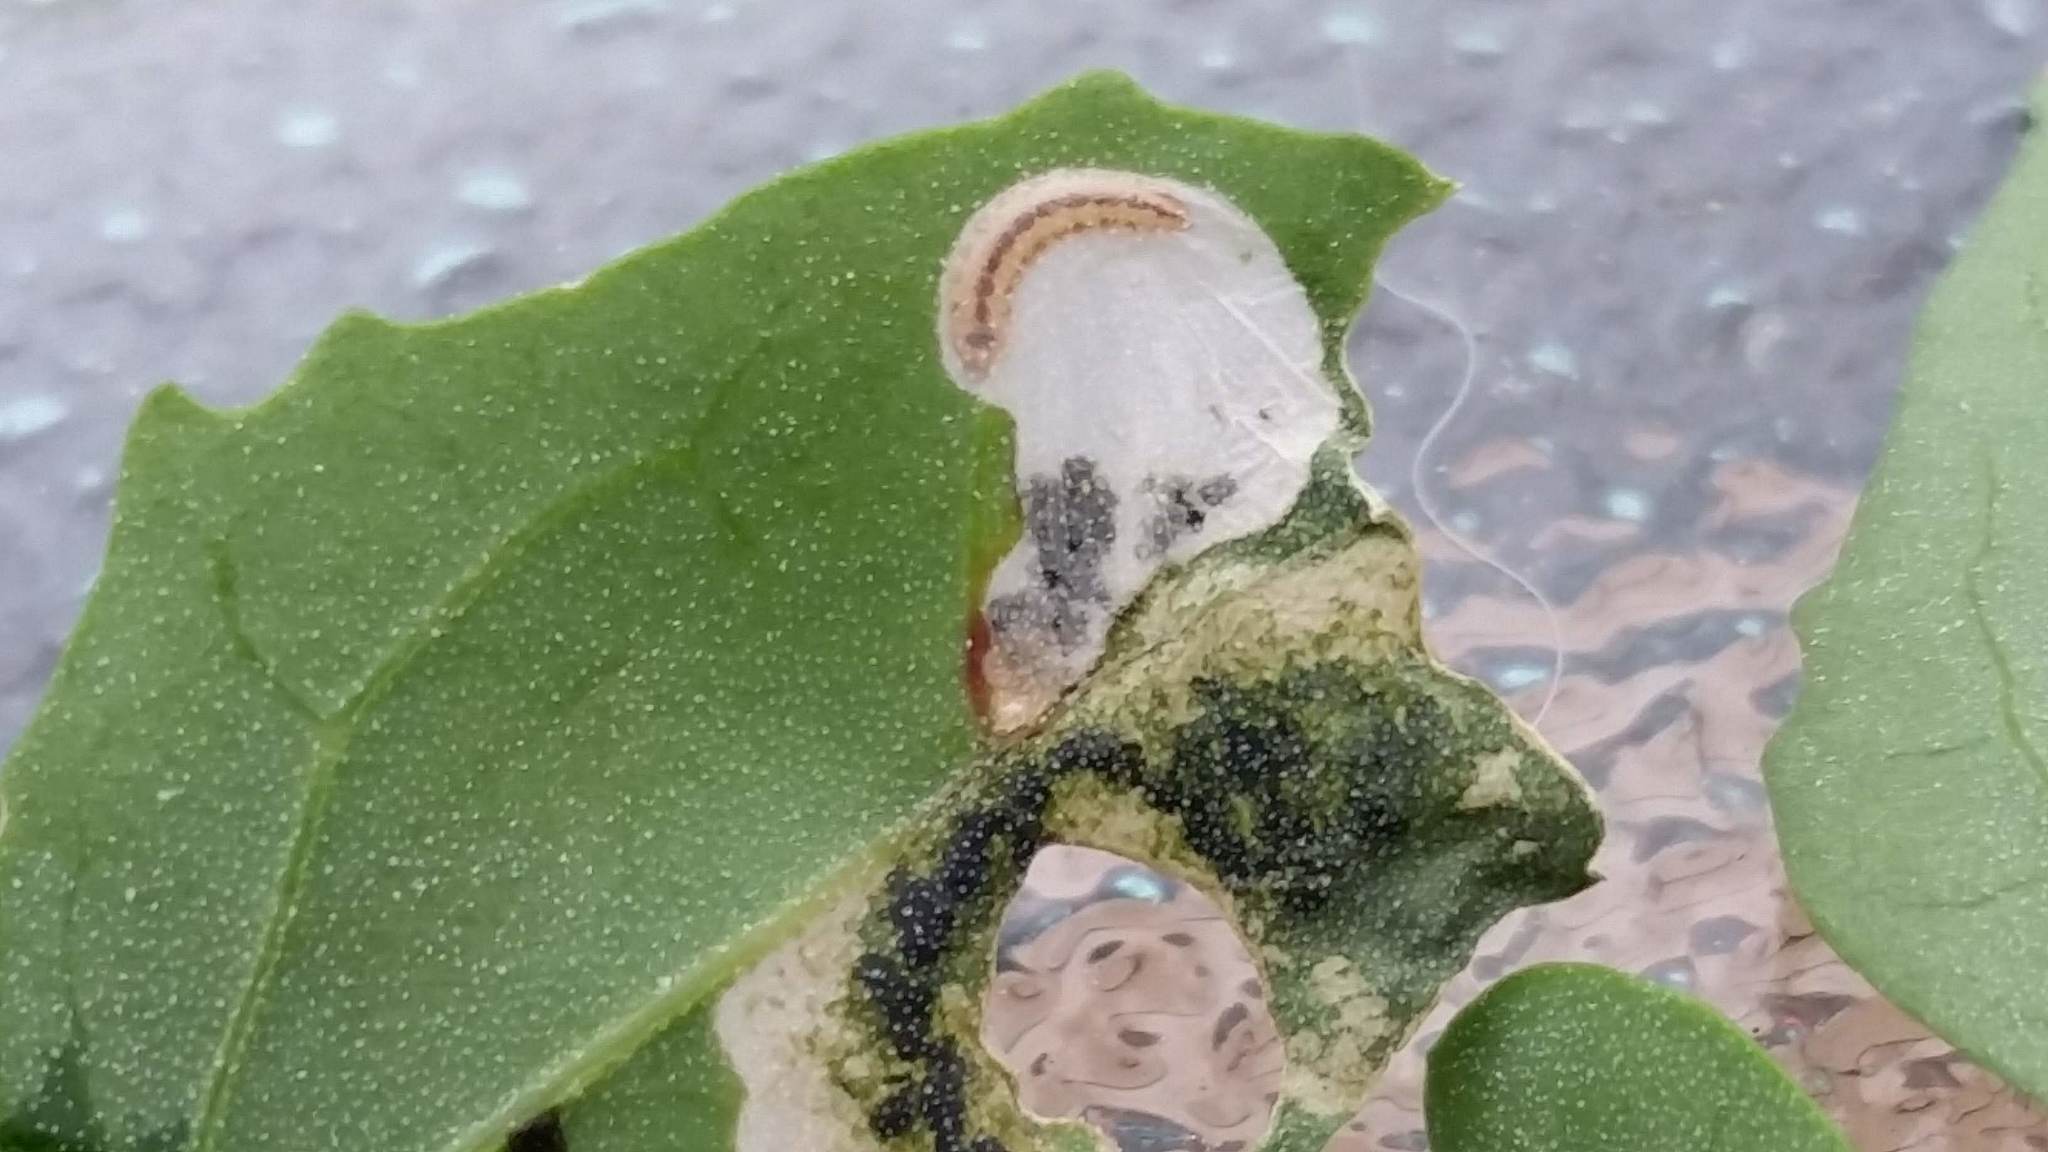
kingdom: Animalia
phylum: Arthropoda
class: Insecta
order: Lepidoptera
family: Gelechiidae
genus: Chrysoesthia
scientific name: Chrysoesthia sexguttella
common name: Moth
